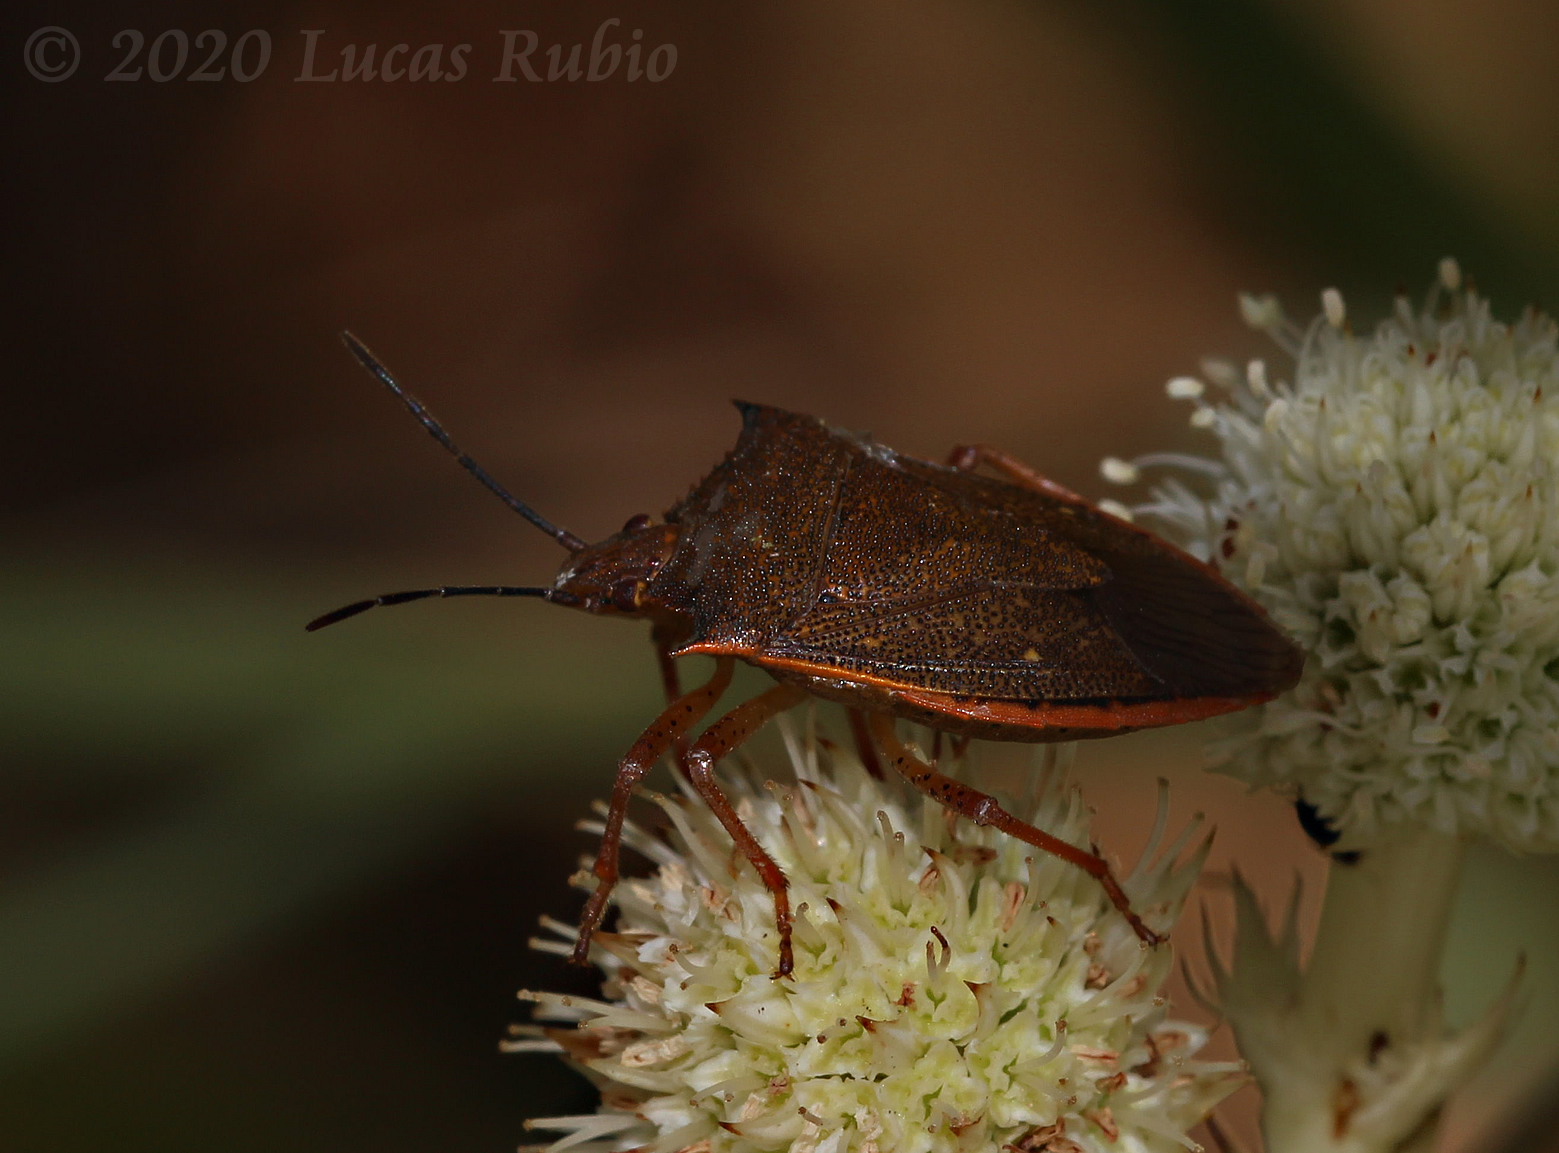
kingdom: Animalia
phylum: Arthropoda
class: Insecta
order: Hemiptera
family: Pentatomidae
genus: Euschistus
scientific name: Euschistus
